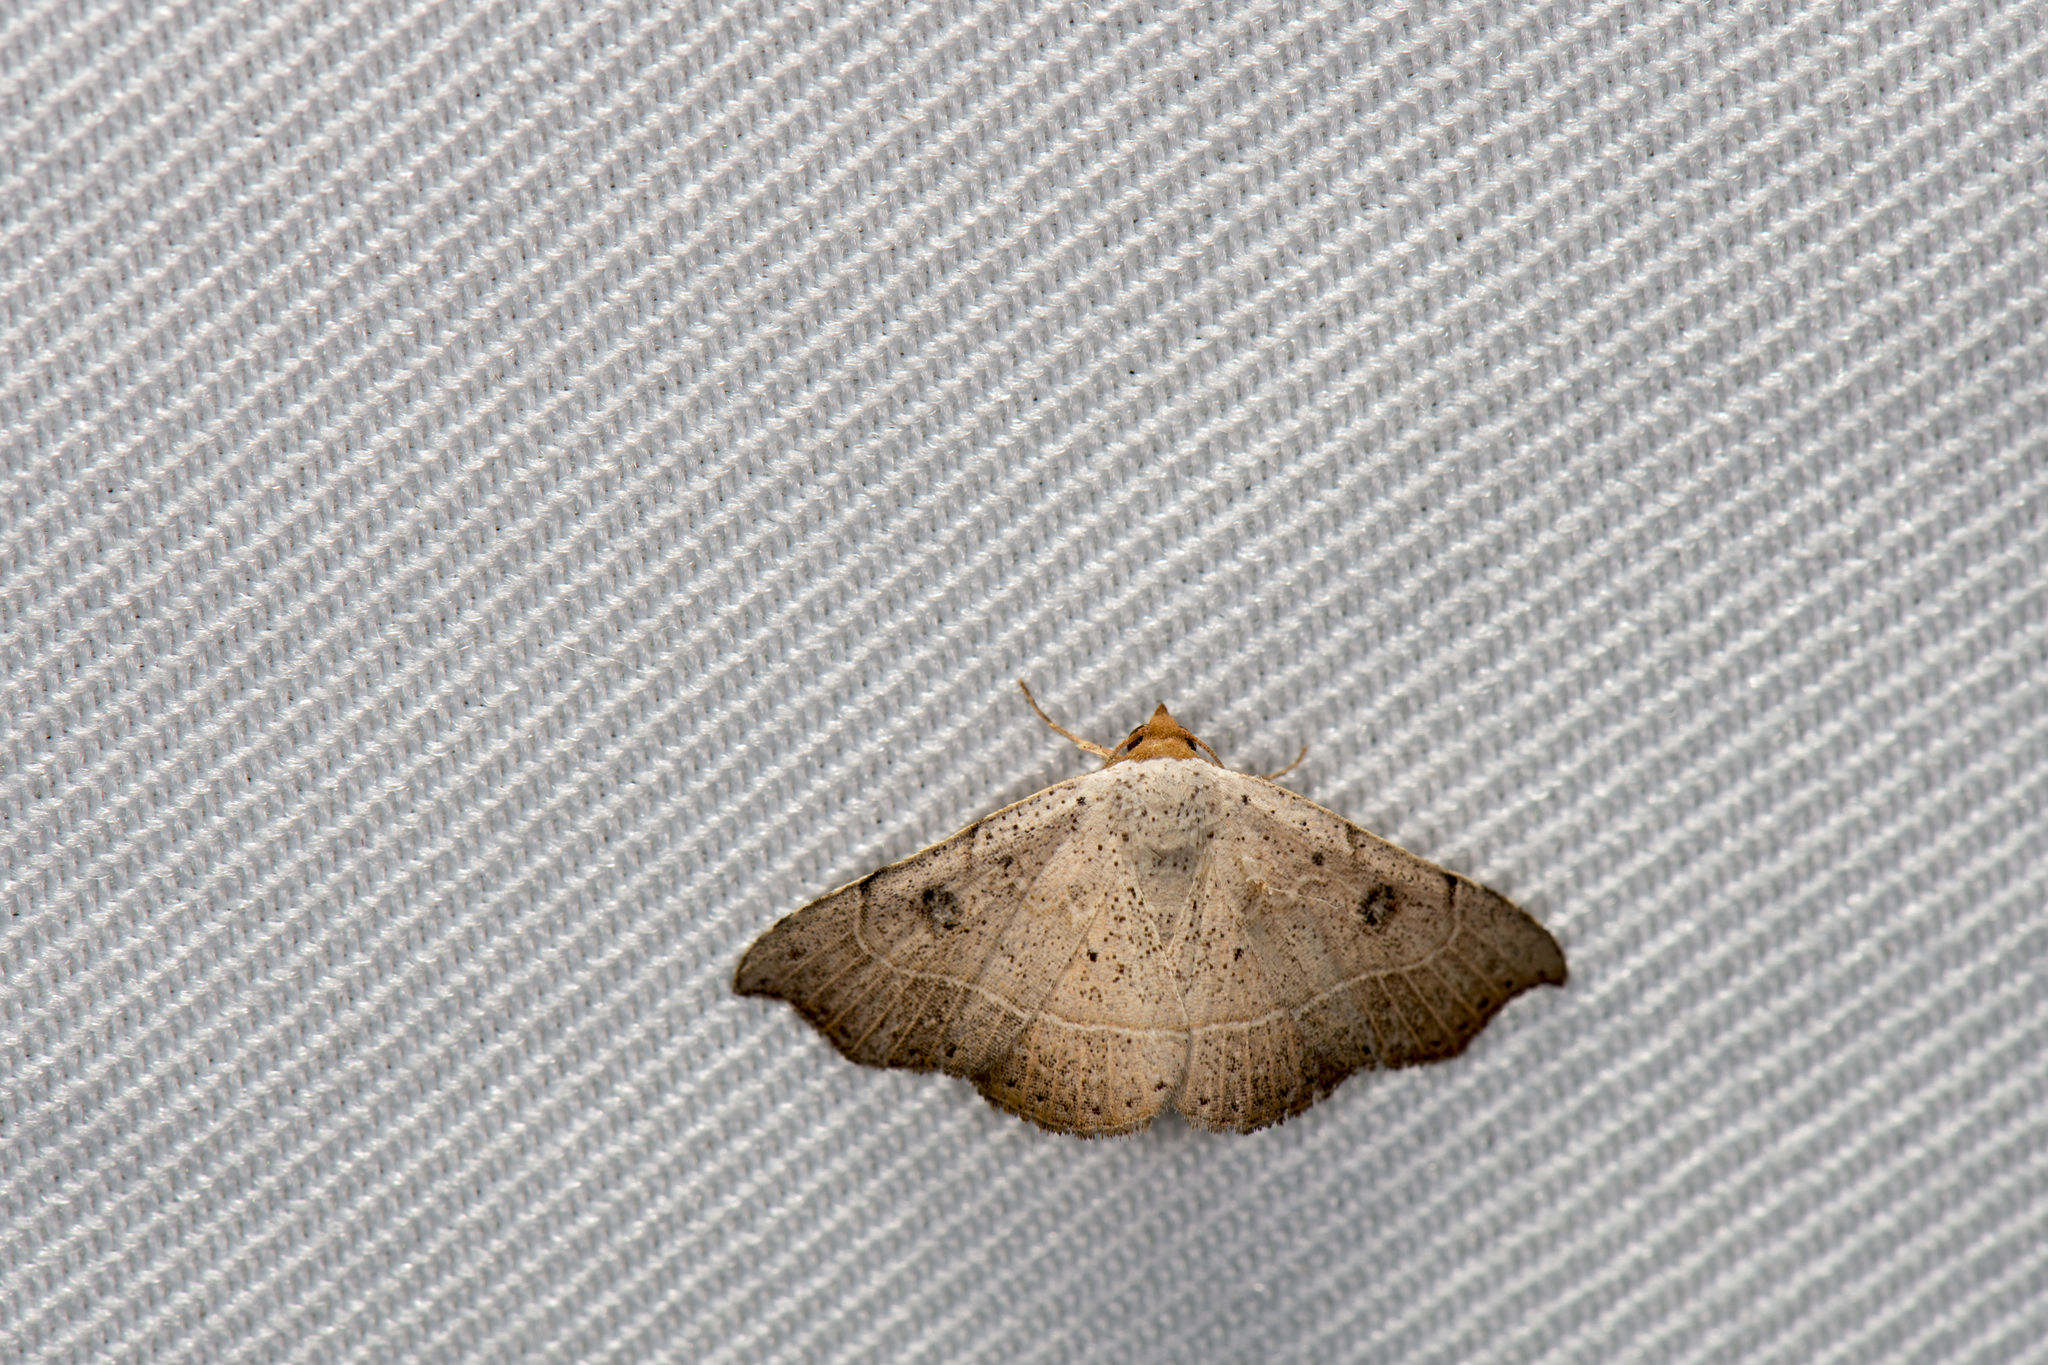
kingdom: Animalia
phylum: Arthropoda
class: Insecta
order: Lepidoptera
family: Erebidae
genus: Laspeyria
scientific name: Laspeyria ruficeps
